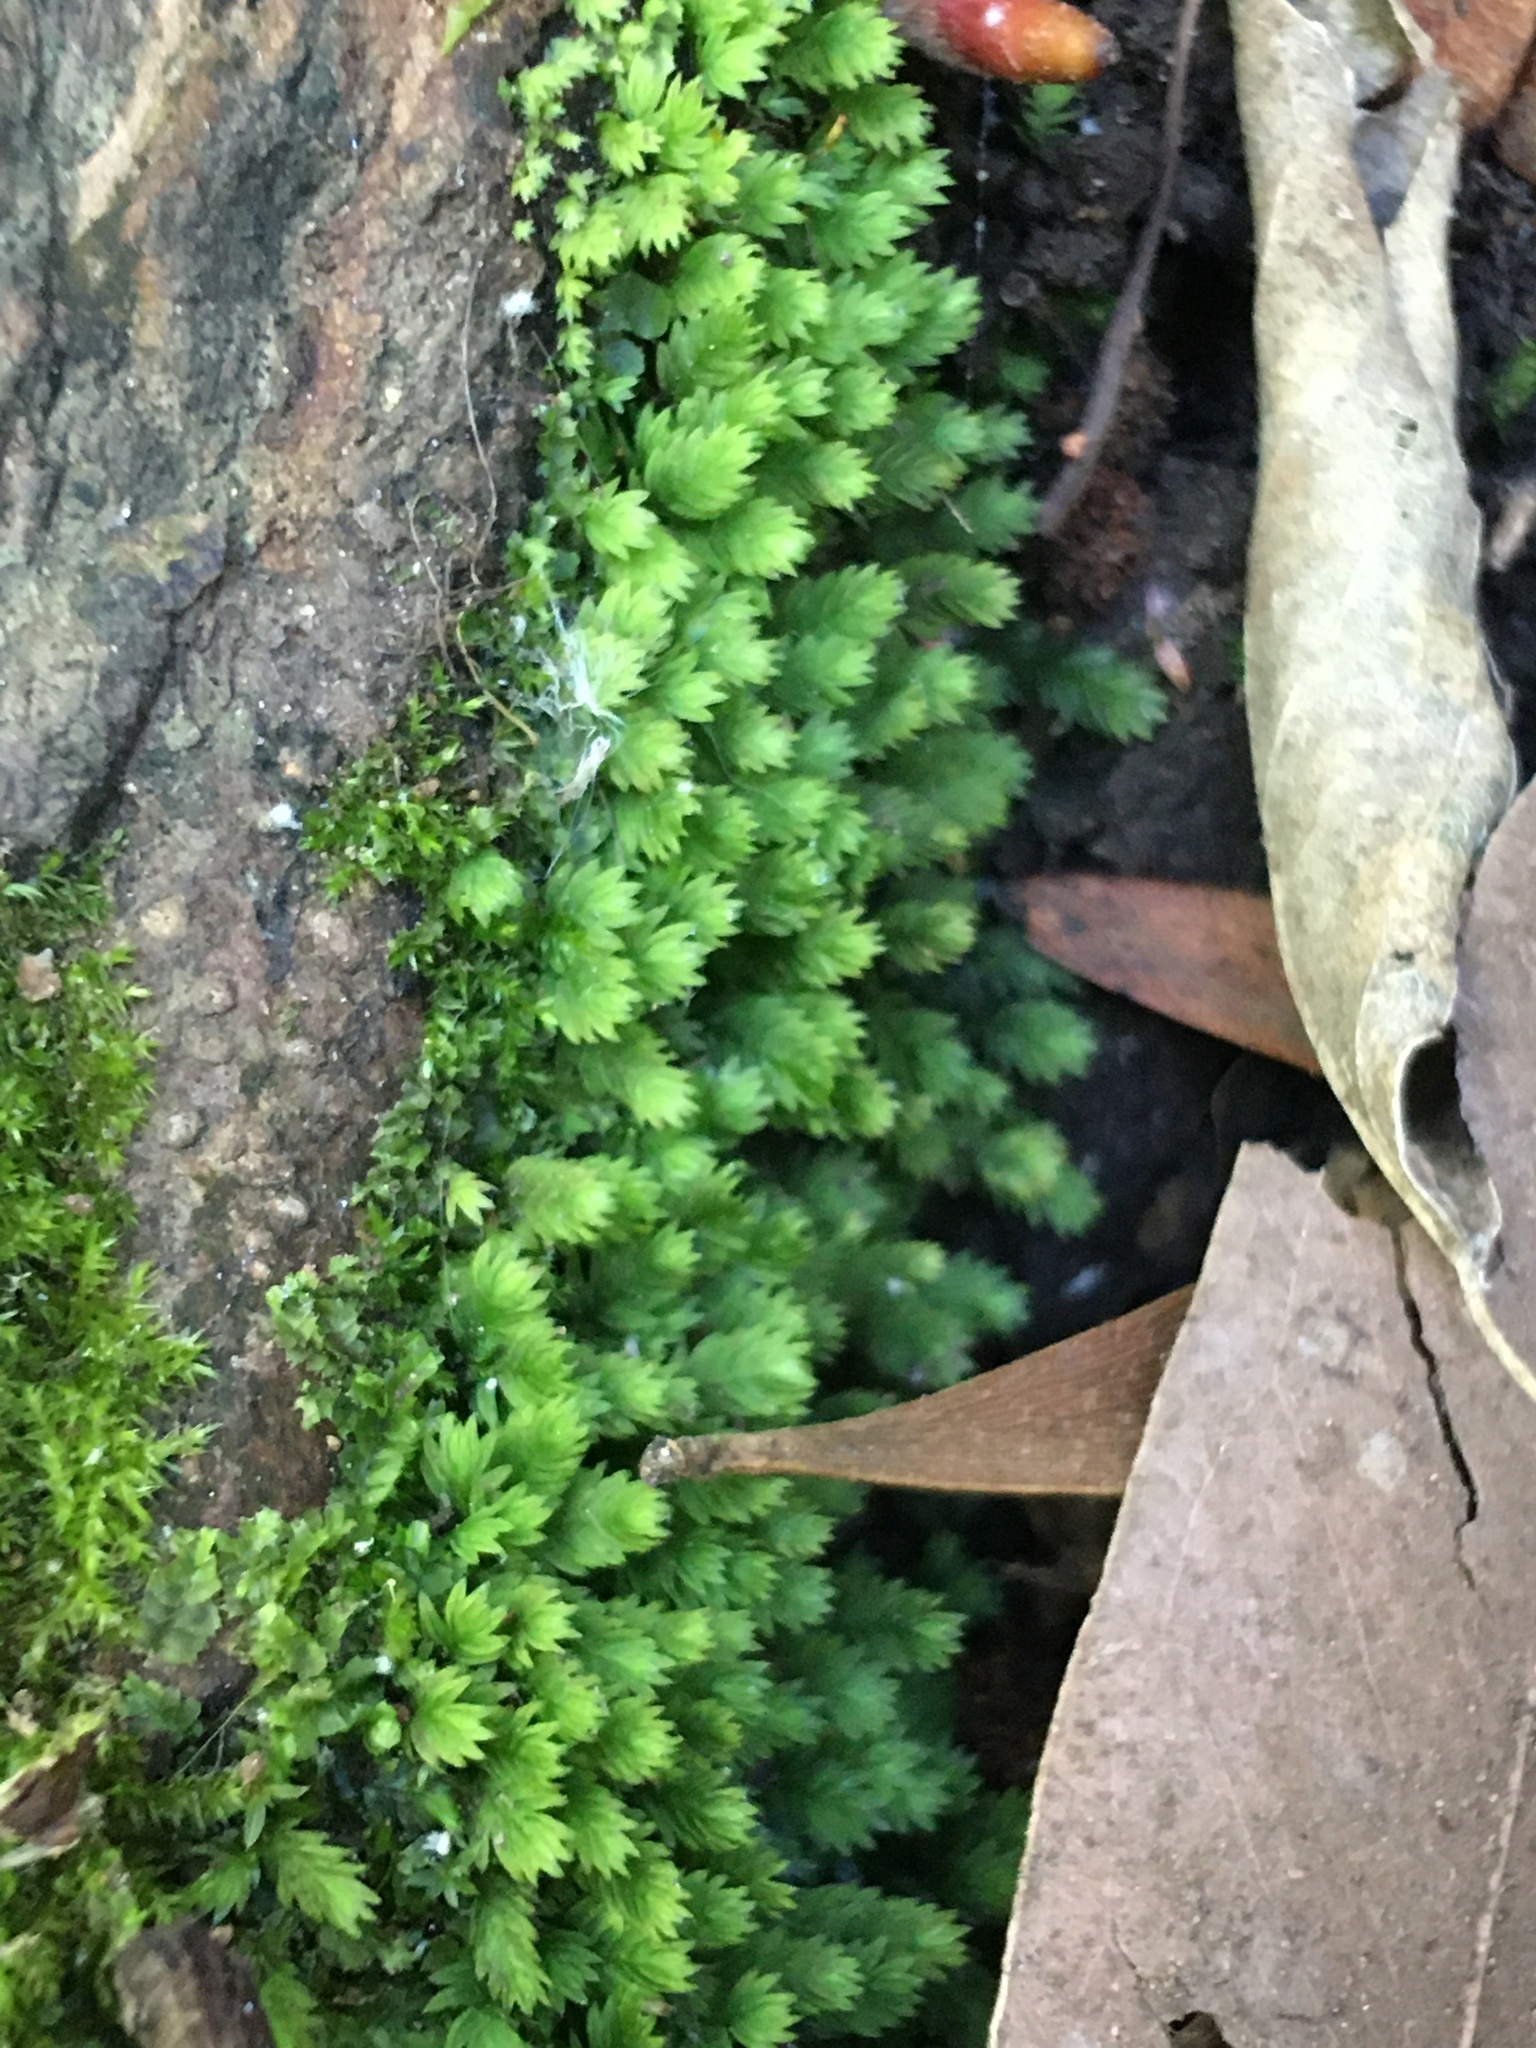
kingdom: Plantae
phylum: Bryophyta
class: Bryopsida
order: Dicranales
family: Fissidentaceae
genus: Fissidens
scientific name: Fissidens ovatus
